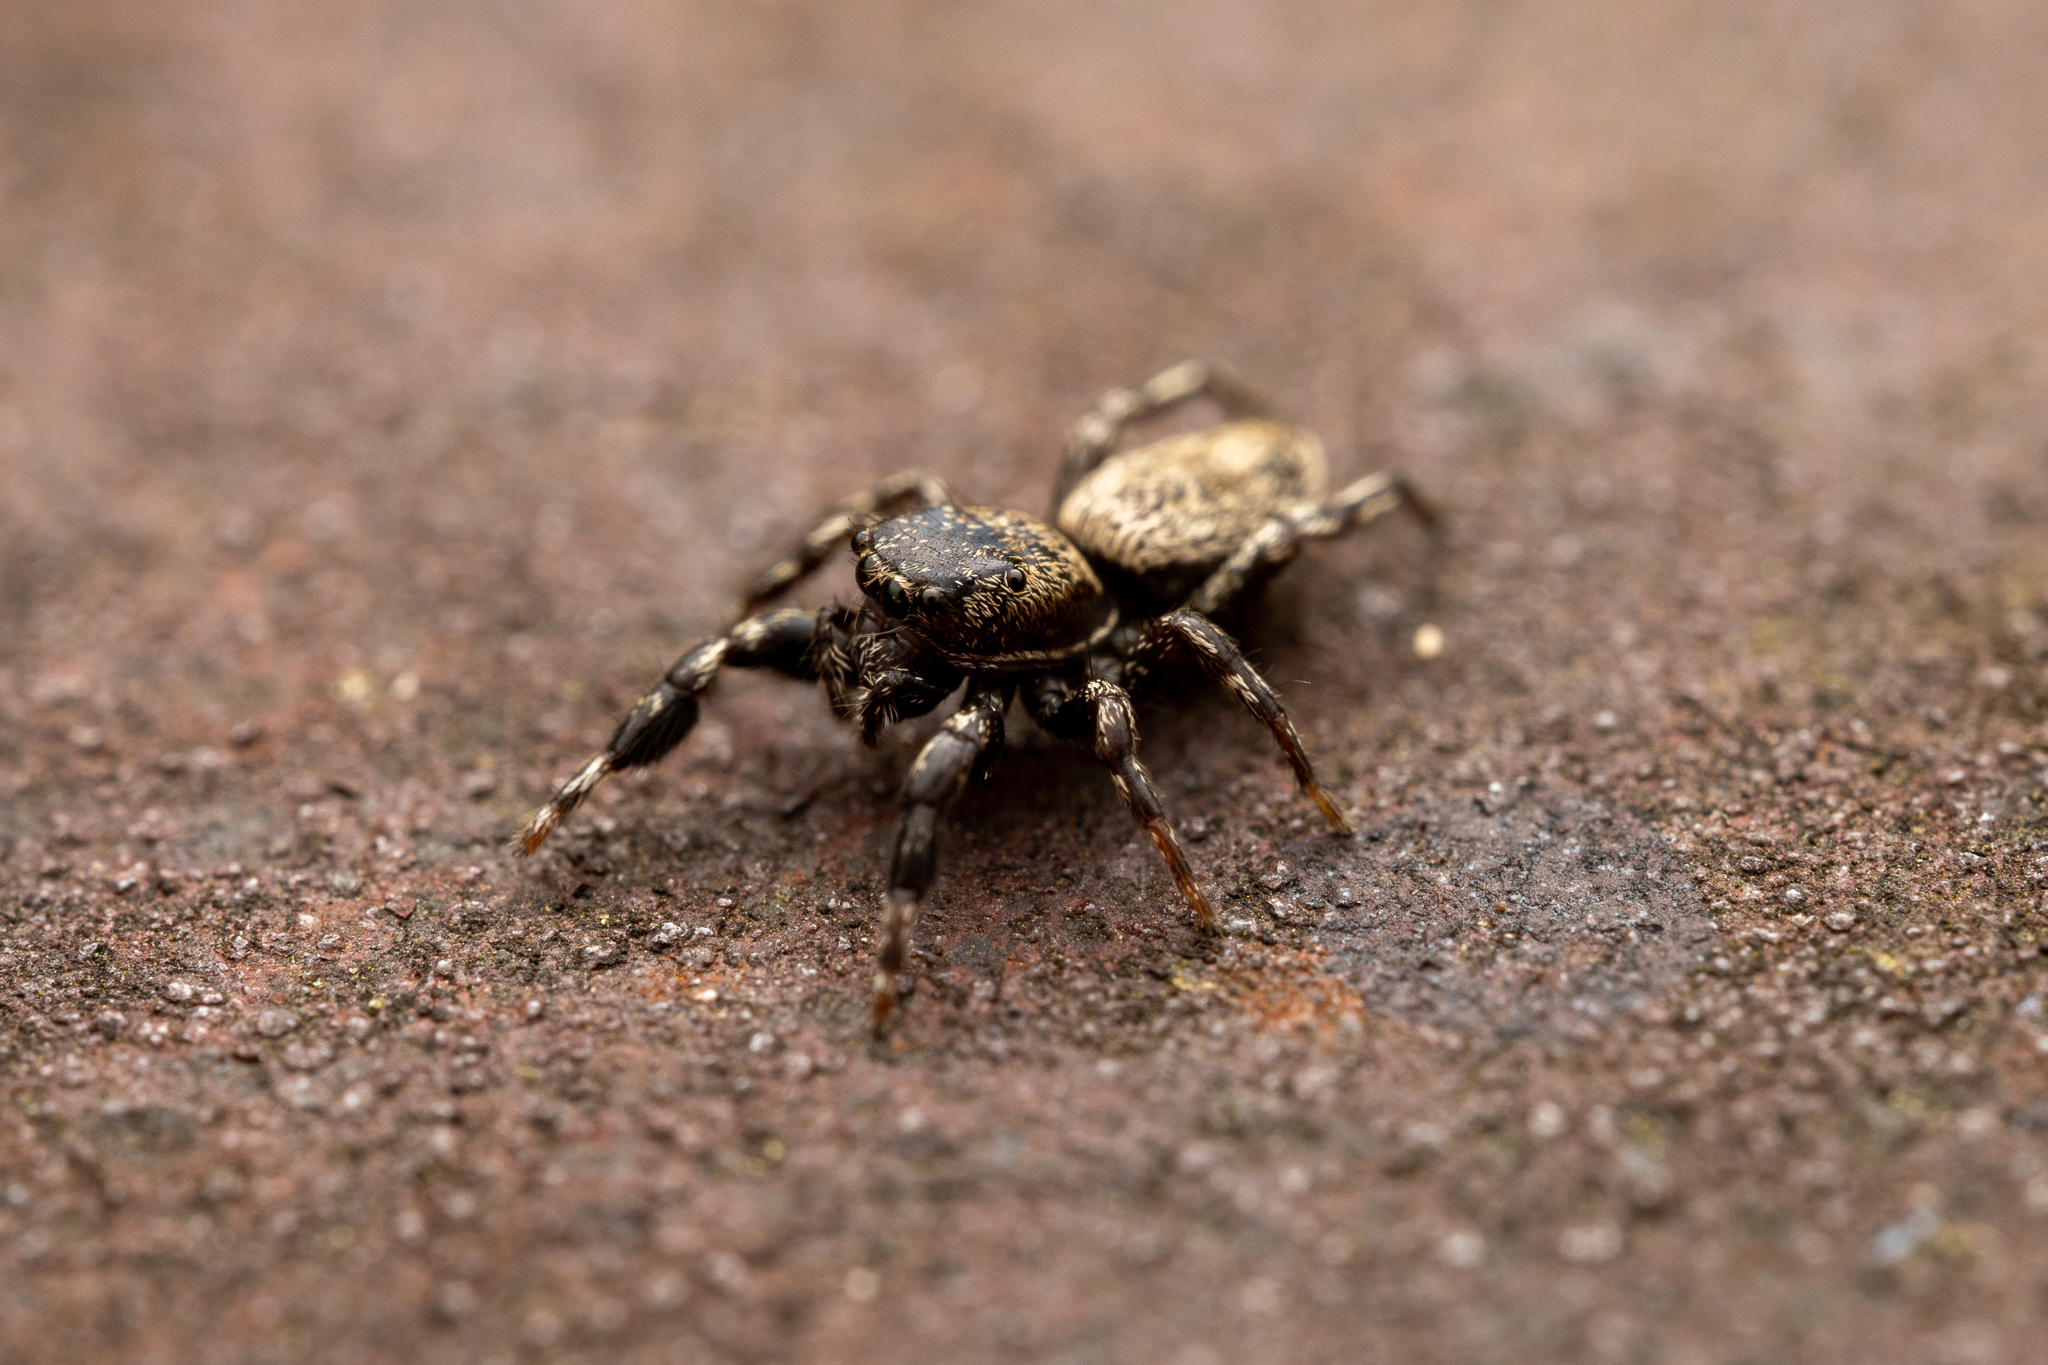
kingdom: Animalia
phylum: Arthropoda
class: Arachnida
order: Araneae
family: Salticidae
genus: Tutelina
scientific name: Tutelina harti
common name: Hart's jumping spider
